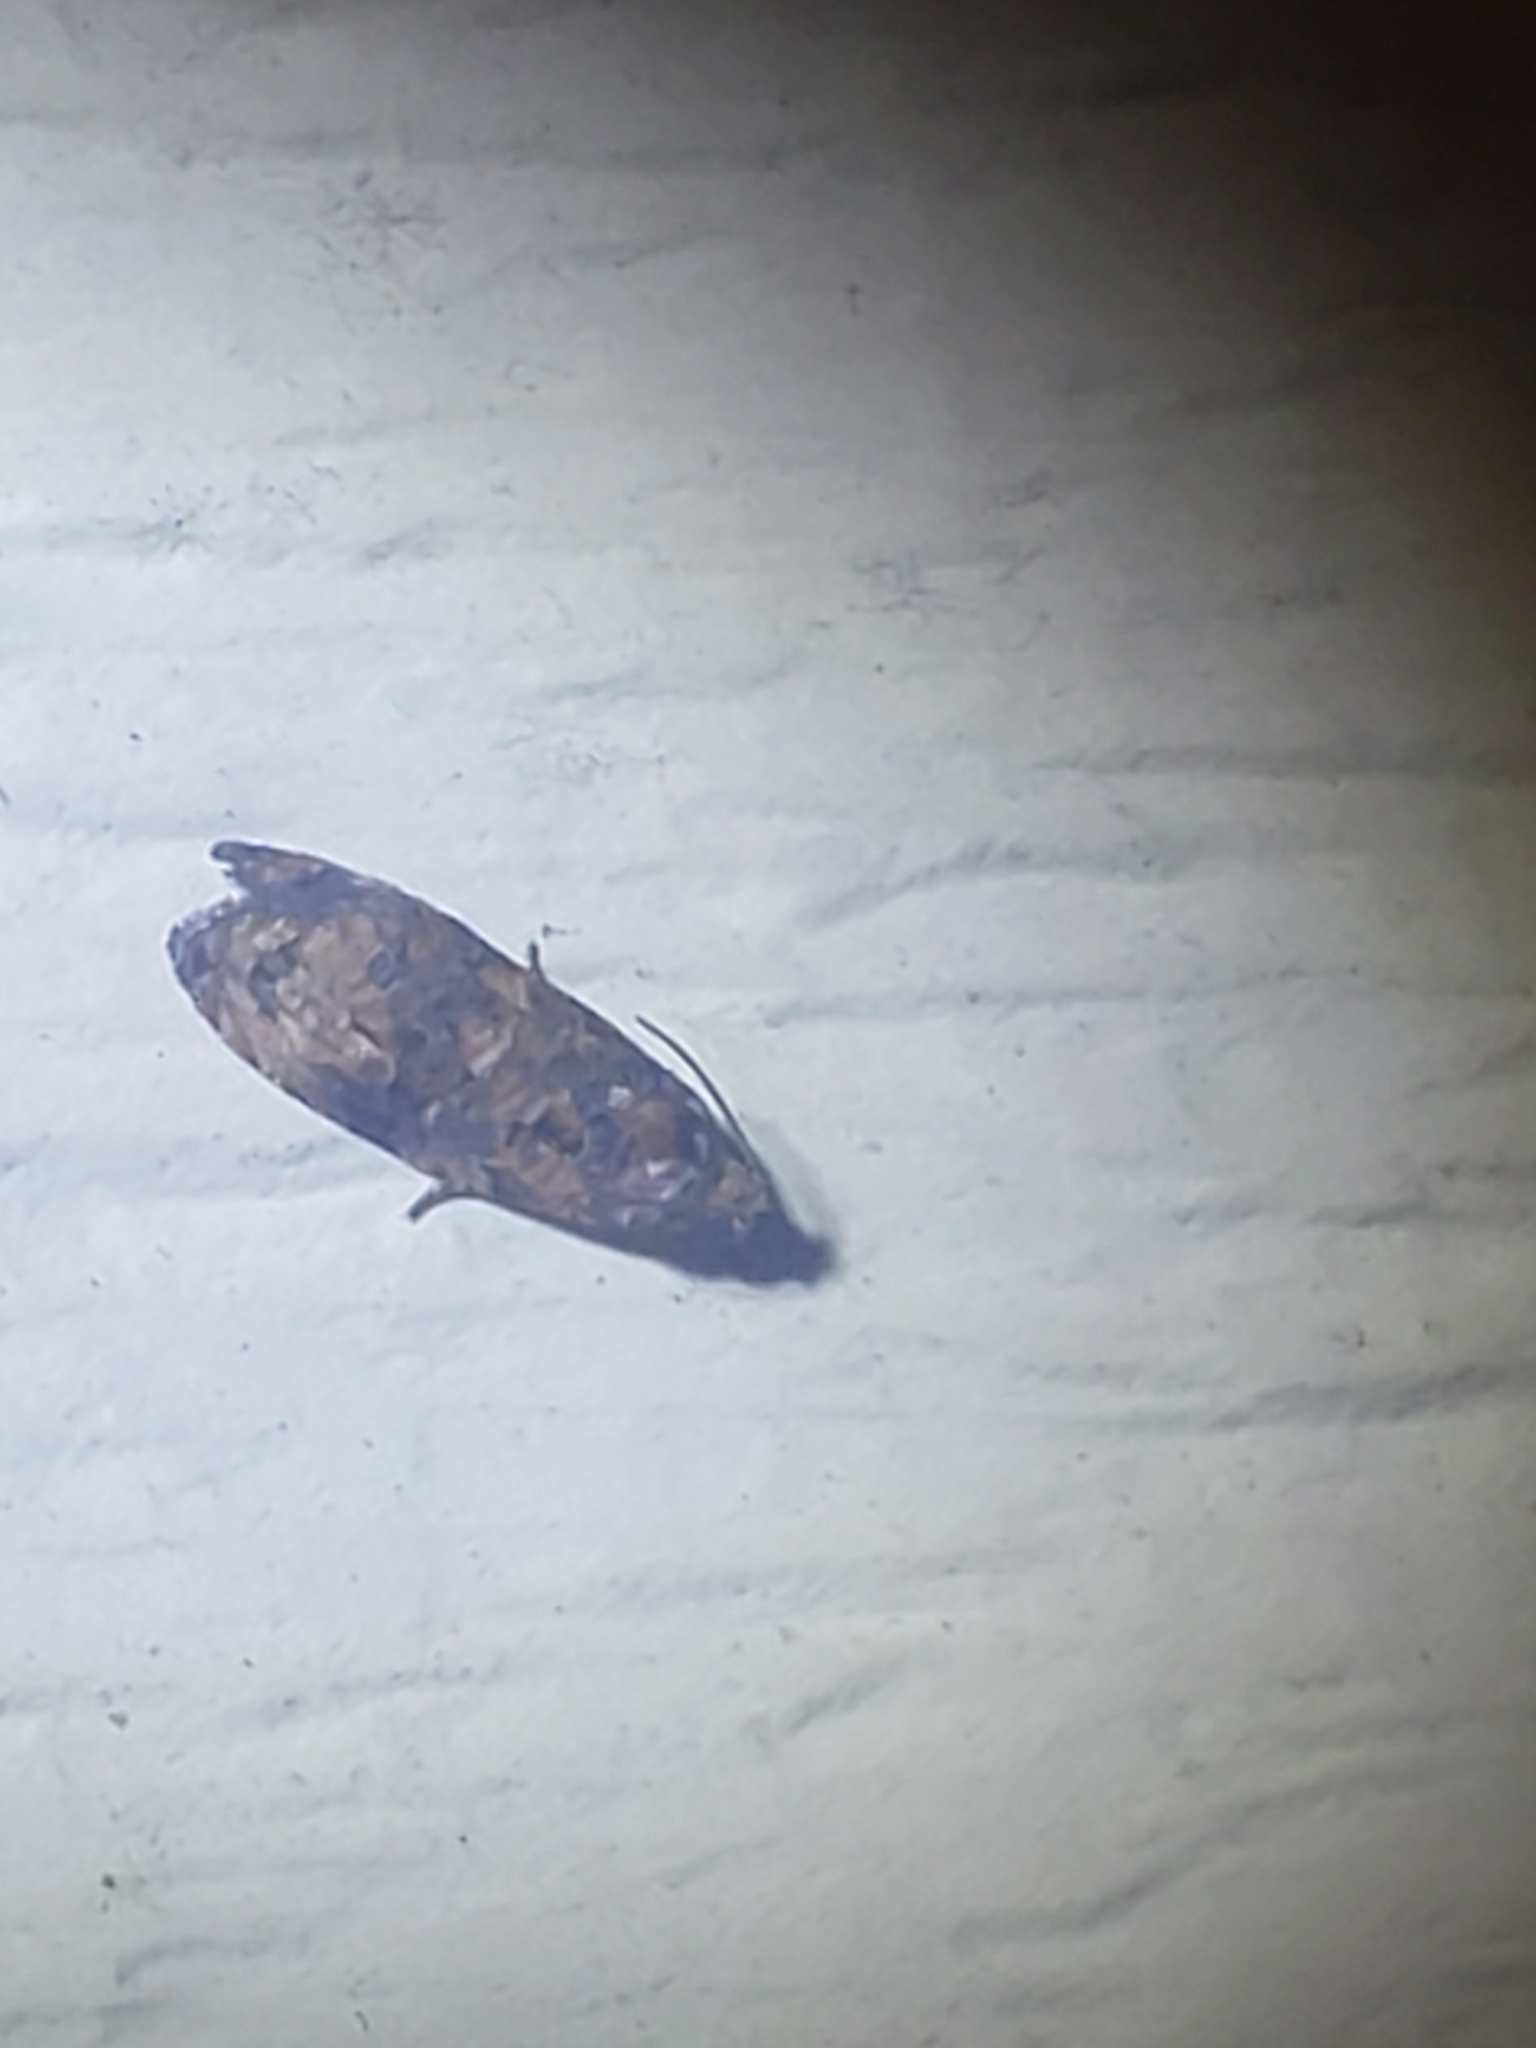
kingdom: Animalia
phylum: Arthropoda
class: Insecta
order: Lepidoptera
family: Tortricidae
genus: Endothenia
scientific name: Endothenia hebesana
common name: Verbena bud moth
